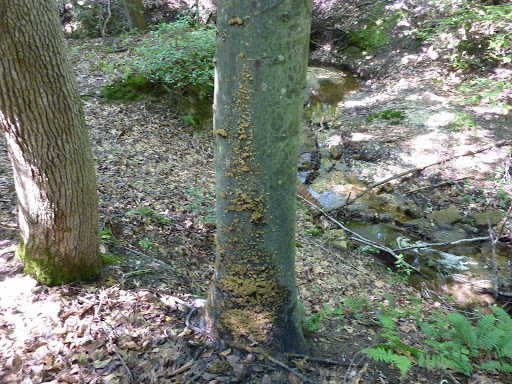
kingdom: Fungi
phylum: Ascomycota
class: Dothideomycetes
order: Capnodiales
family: Capnodiaceae
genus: Scorias
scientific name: Scorias spongiosa
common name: Black sooty mold
